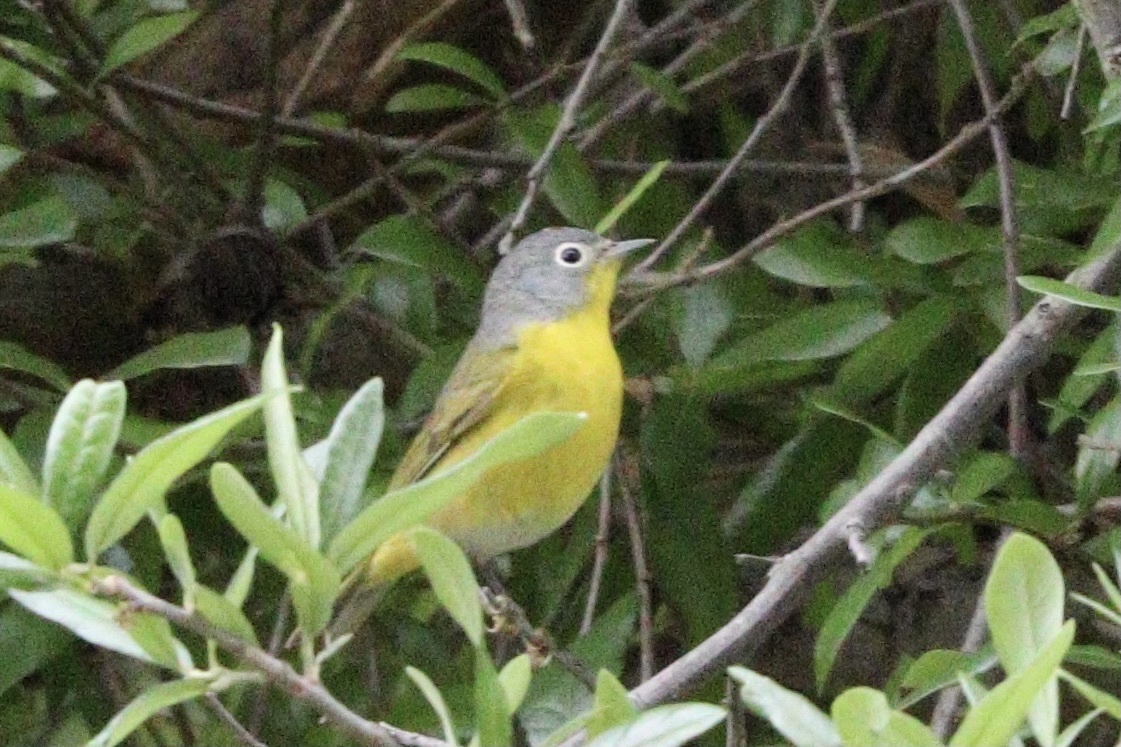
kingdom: Animalia
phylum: Chordata
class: Aves
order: Passeriformes
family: Parulidae
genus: Leiothlypis
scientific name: Leiothlypis ruficapilla
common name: Nashville warbler
